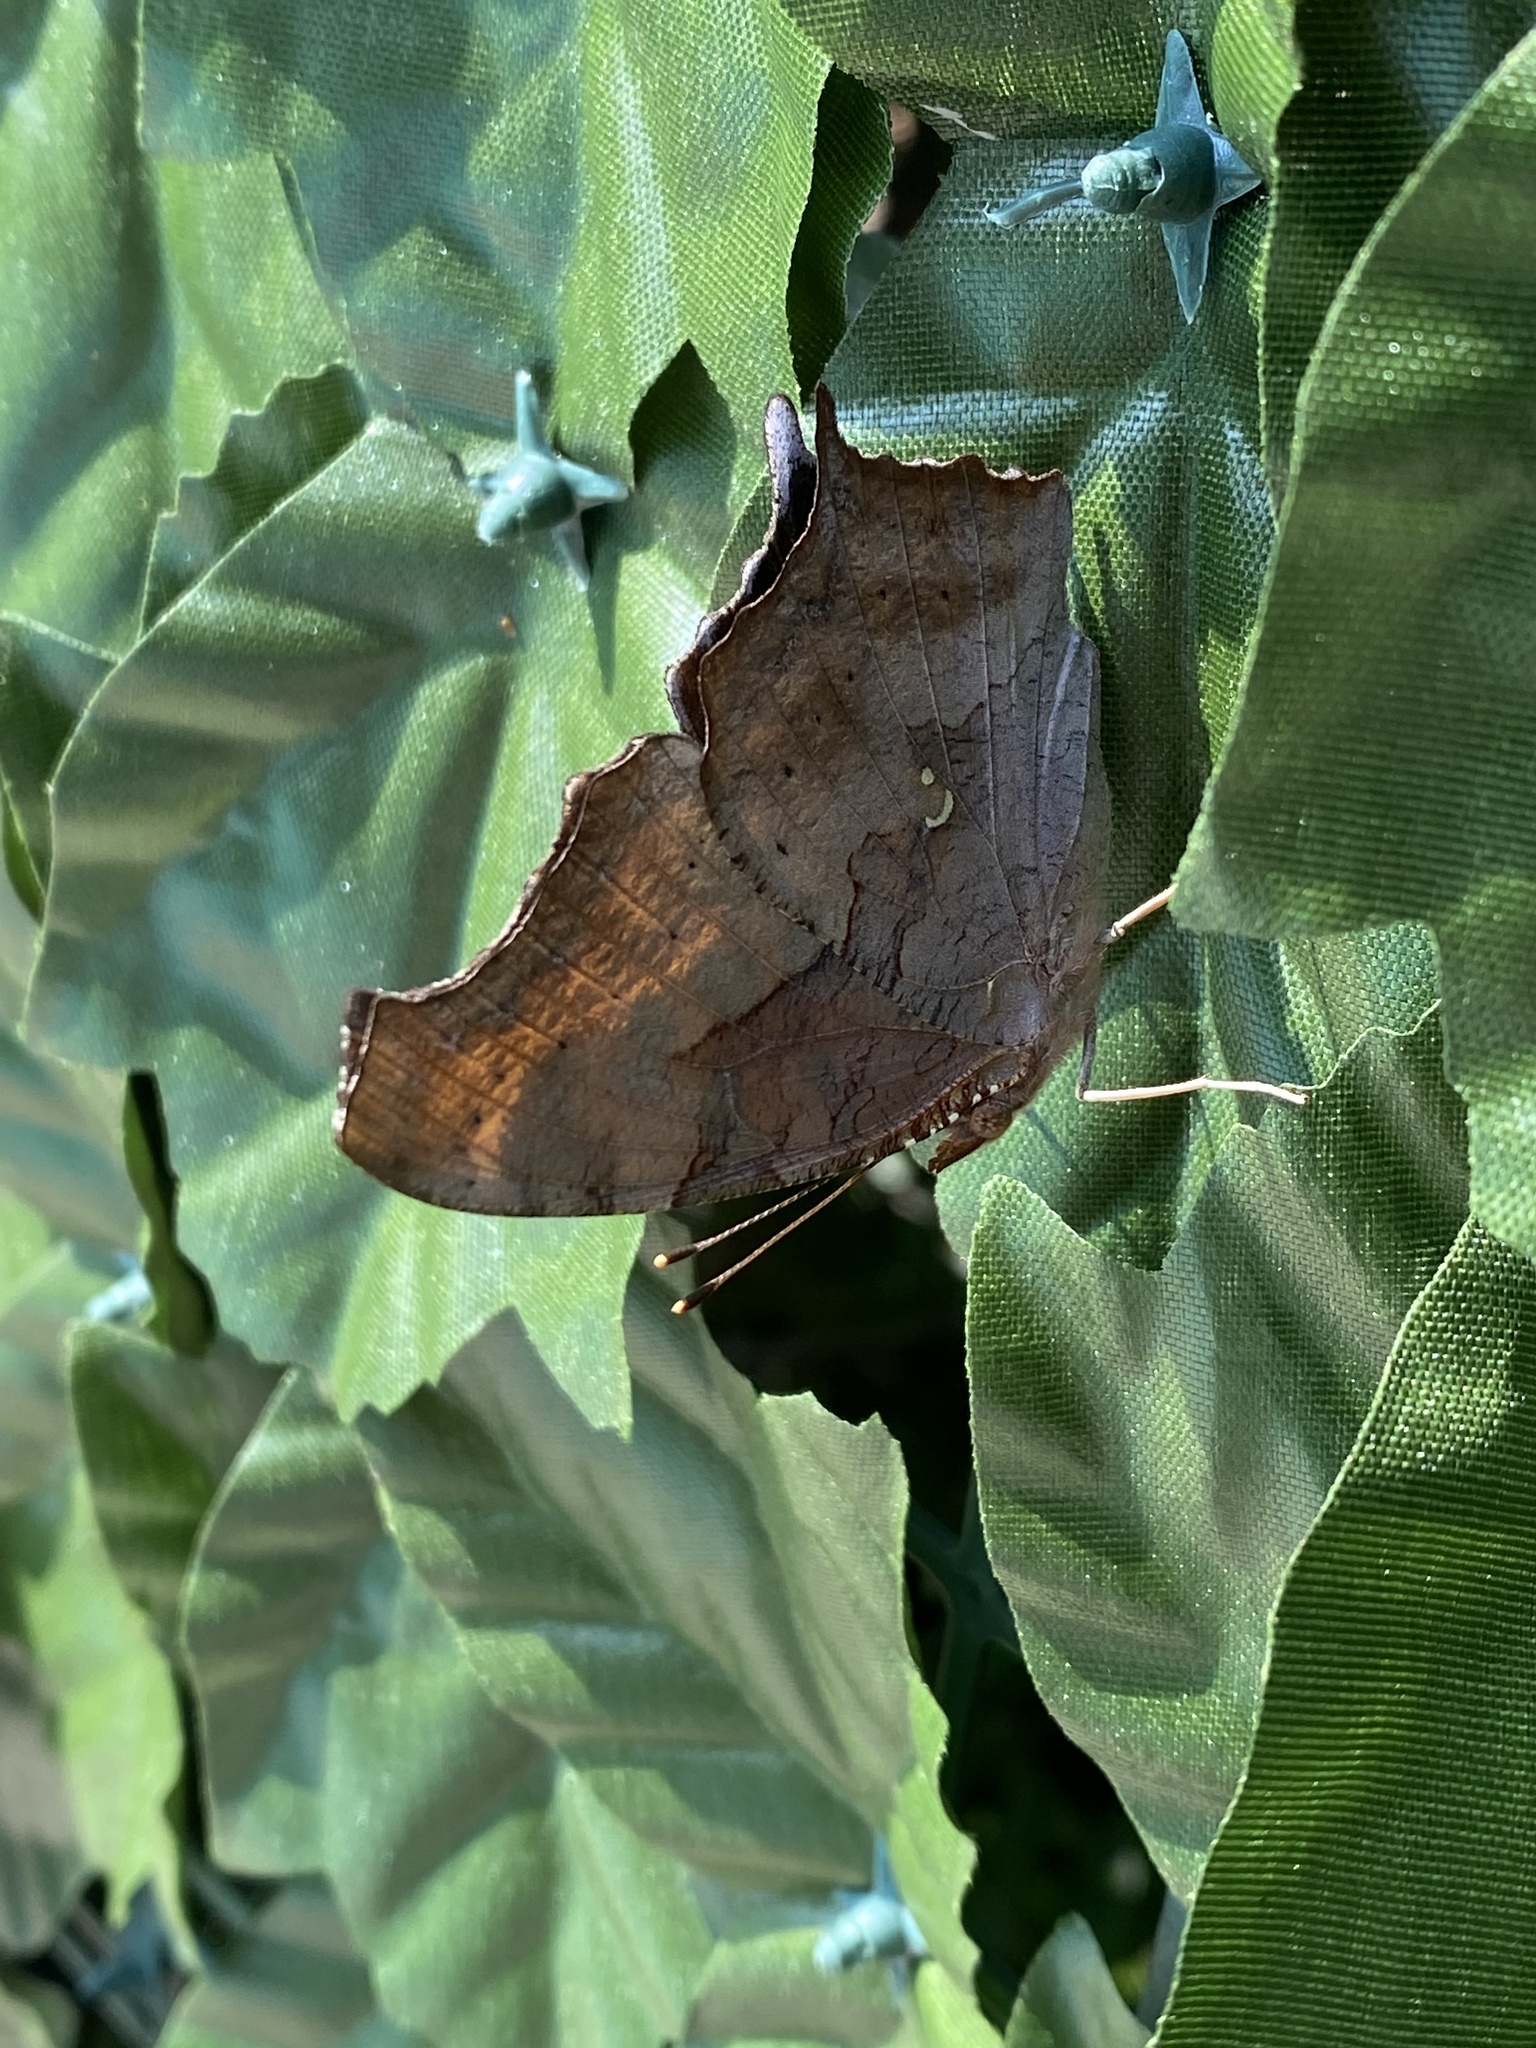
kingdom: Animalia
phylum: Arthropoda
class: Insecta
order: Lepidoptera
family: Nymphalidae
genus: Polygonia
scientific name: Polygonia interrogationis
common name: Question mark
